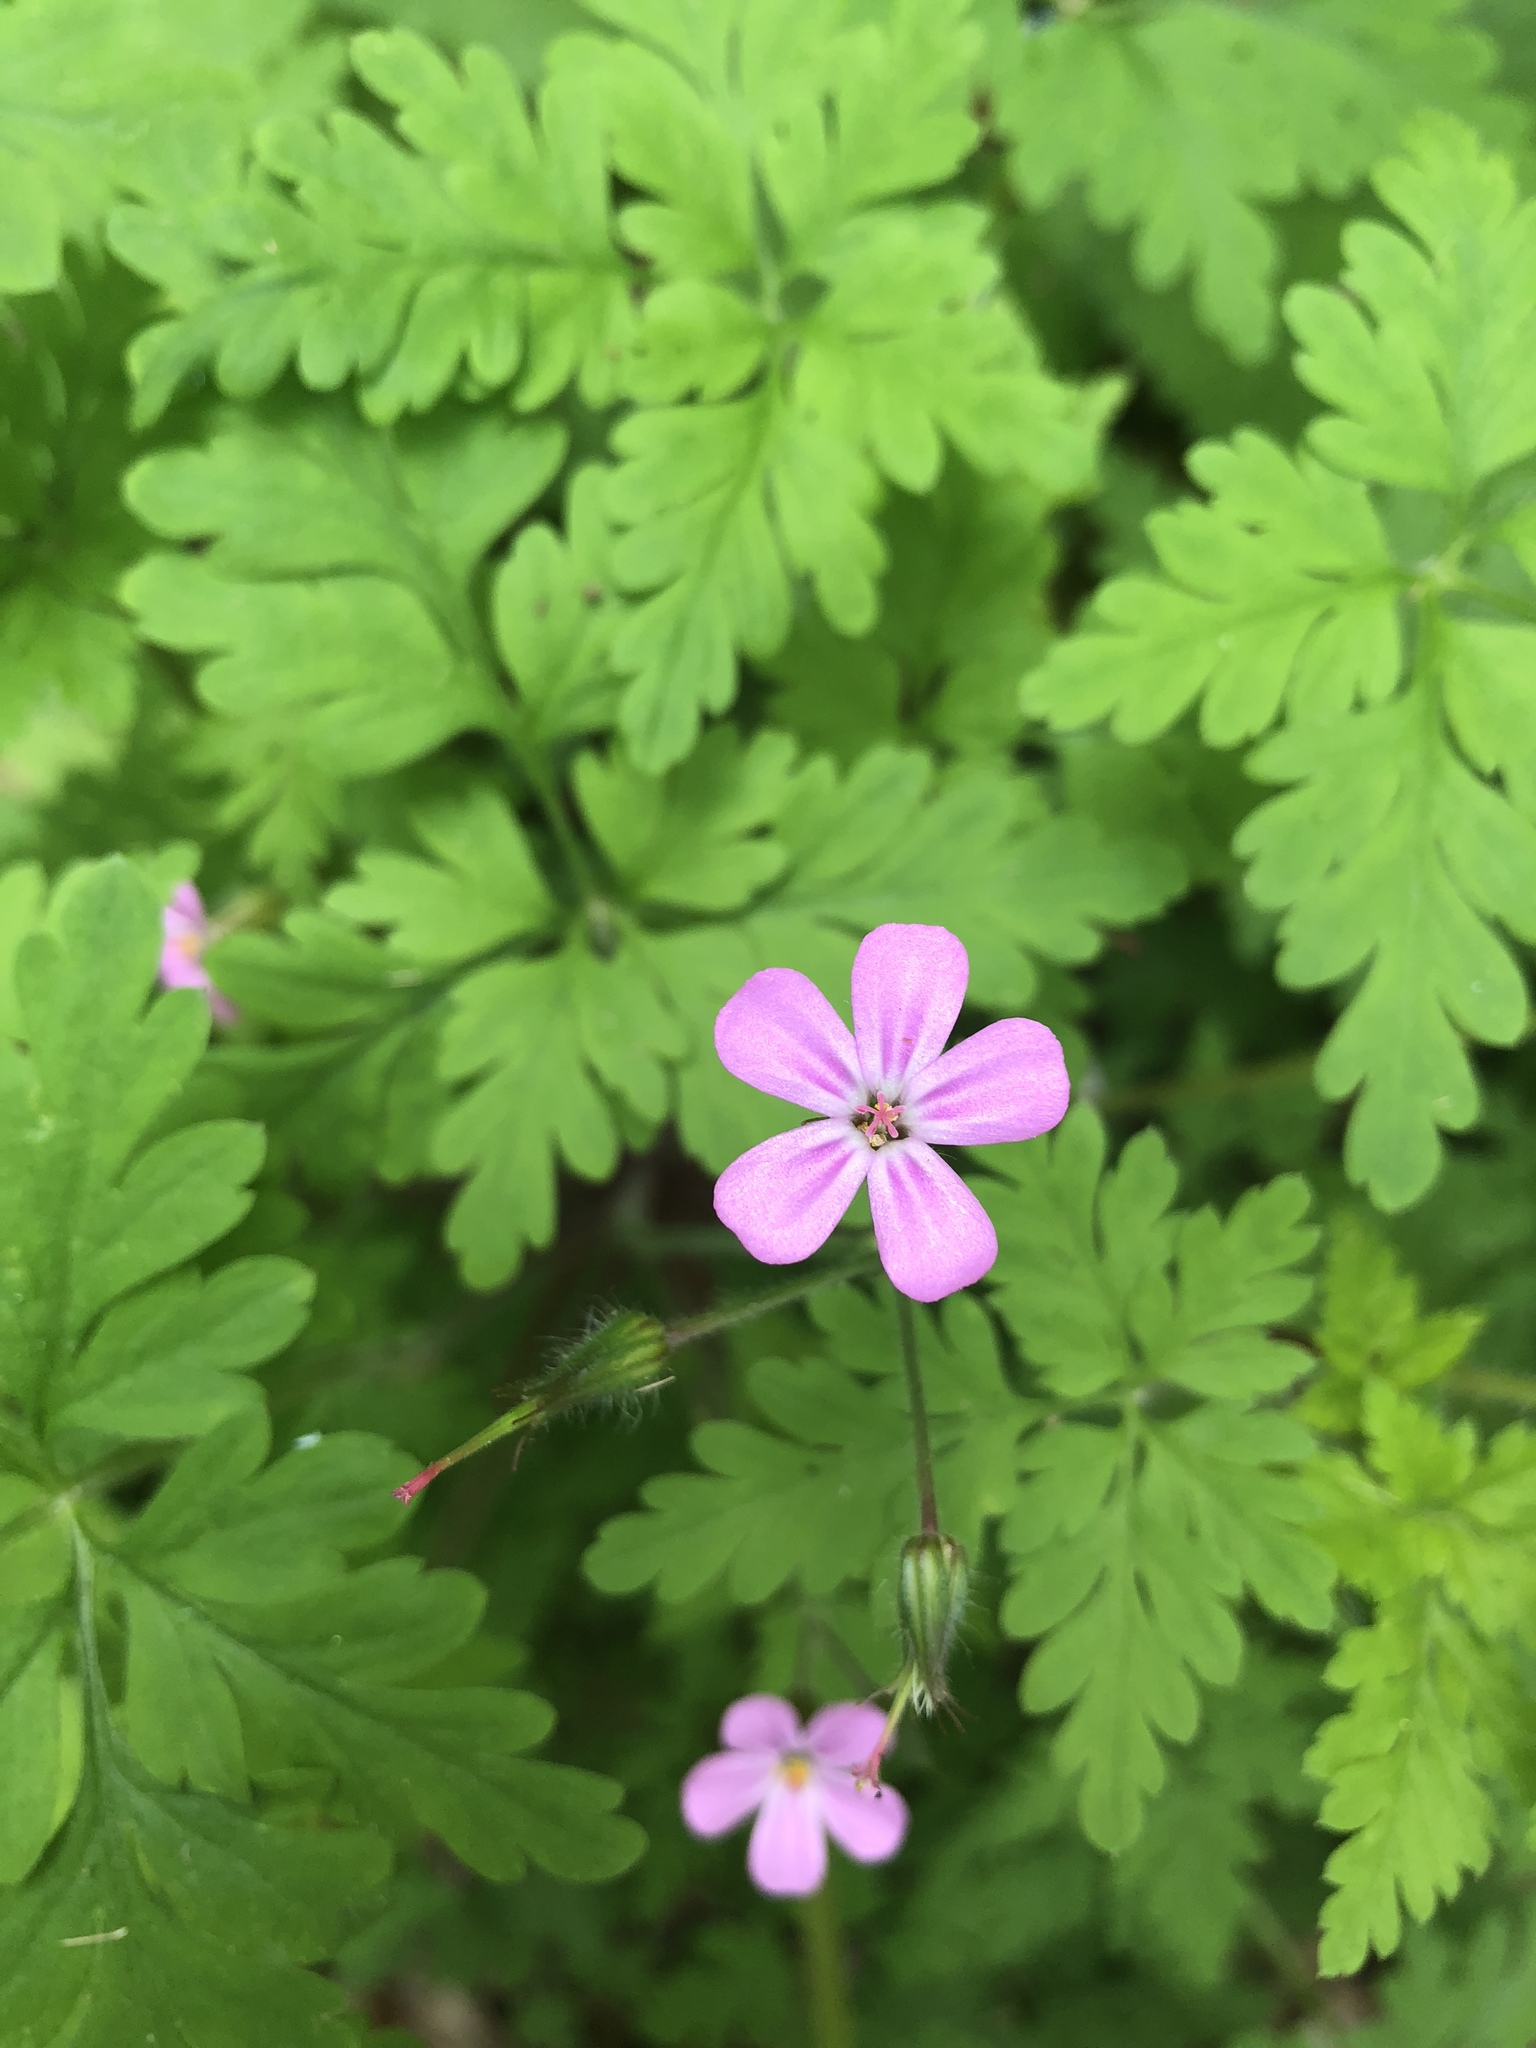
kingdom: Plantae
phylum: Tracheophyta
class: Magnoliopsida
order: Geraniales
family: Geraniaceae
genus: Geranium
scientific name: Geranium robertianum
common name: Herb-robert
